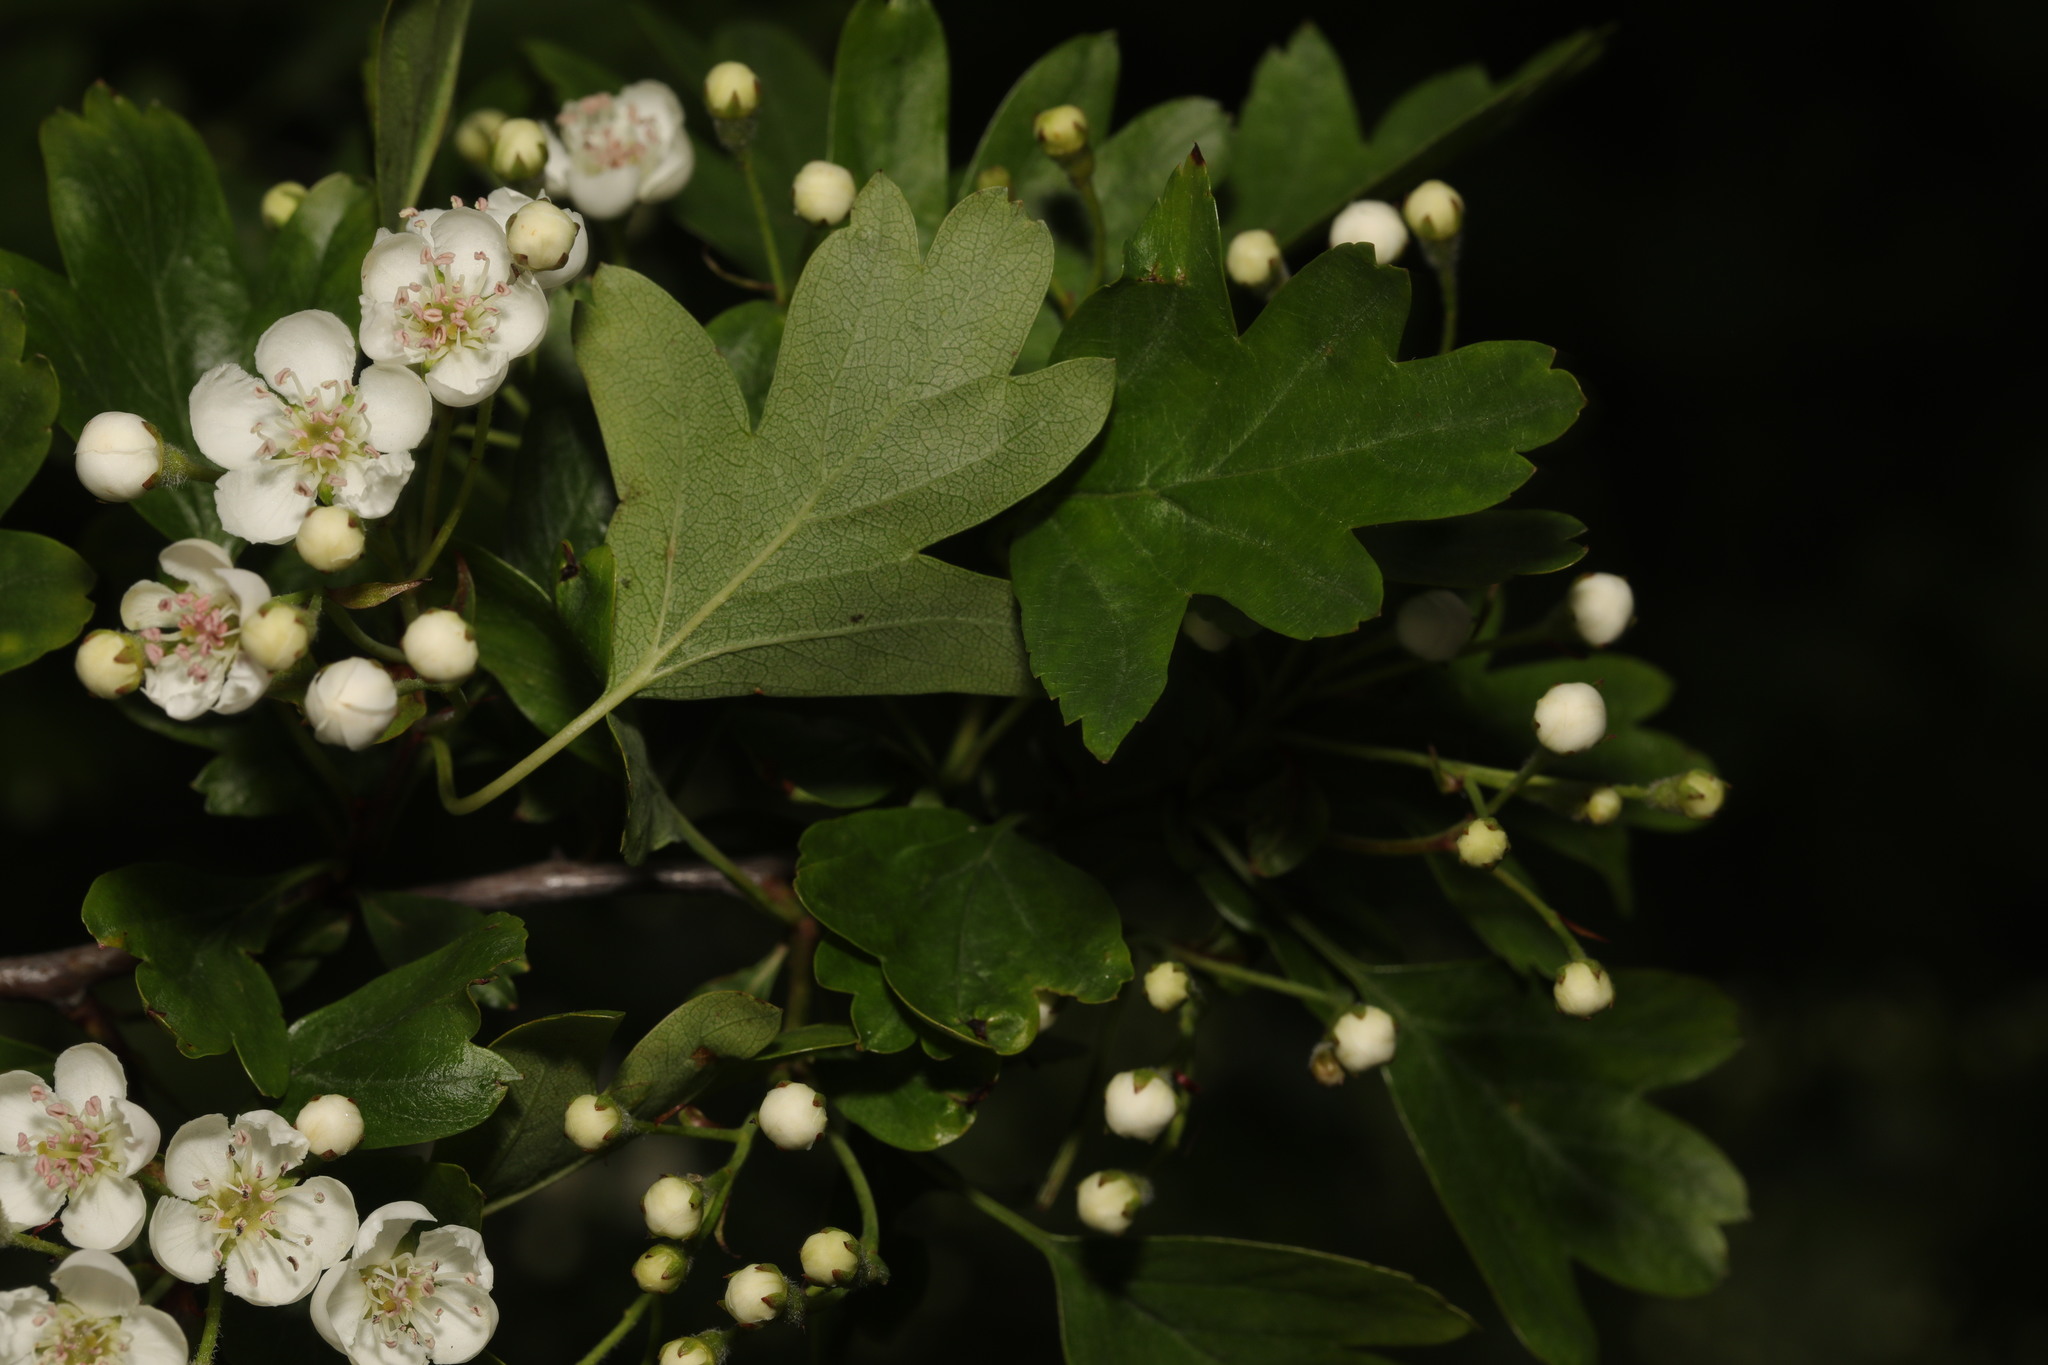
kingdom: Plantae
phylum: Tracheophyta
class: Magnoliopsida
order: Rosales
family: Rosaceae
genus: Crataegus
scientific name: Crataegus monogyna
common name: Hawthorn
